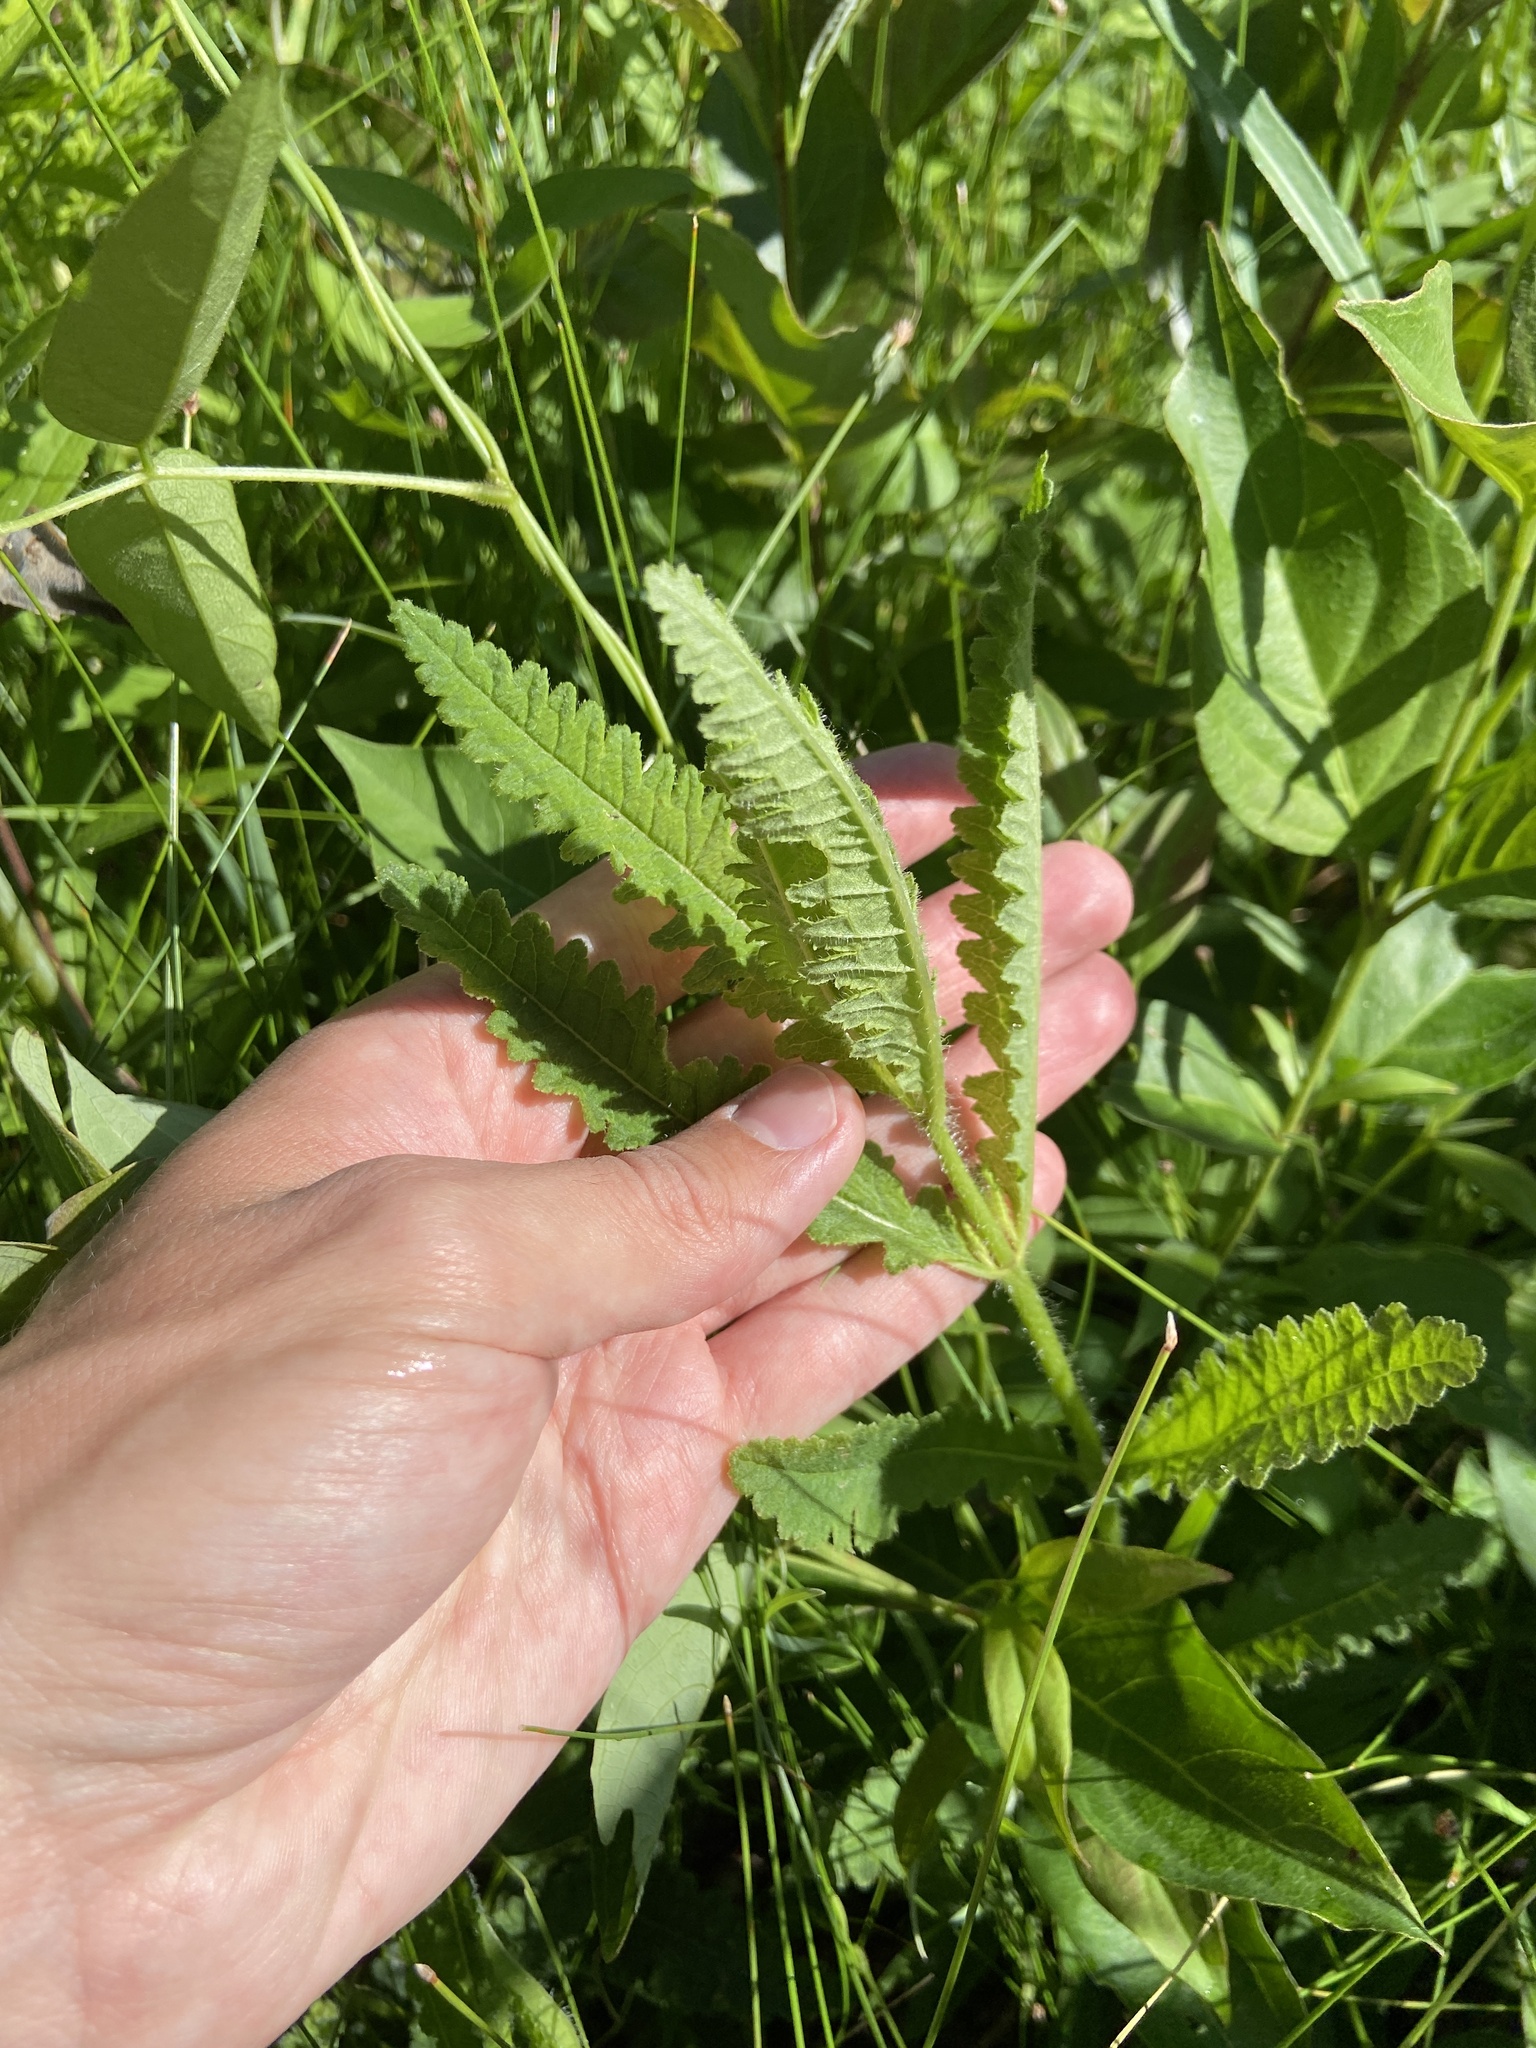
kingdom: Plantae
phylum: Tracheophyta
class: Magnoliopsida
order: Lamiales
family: Orobanchaceae
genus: Pedicularis
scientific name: Pedicularis lanceolata
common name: Swamp lousewort
